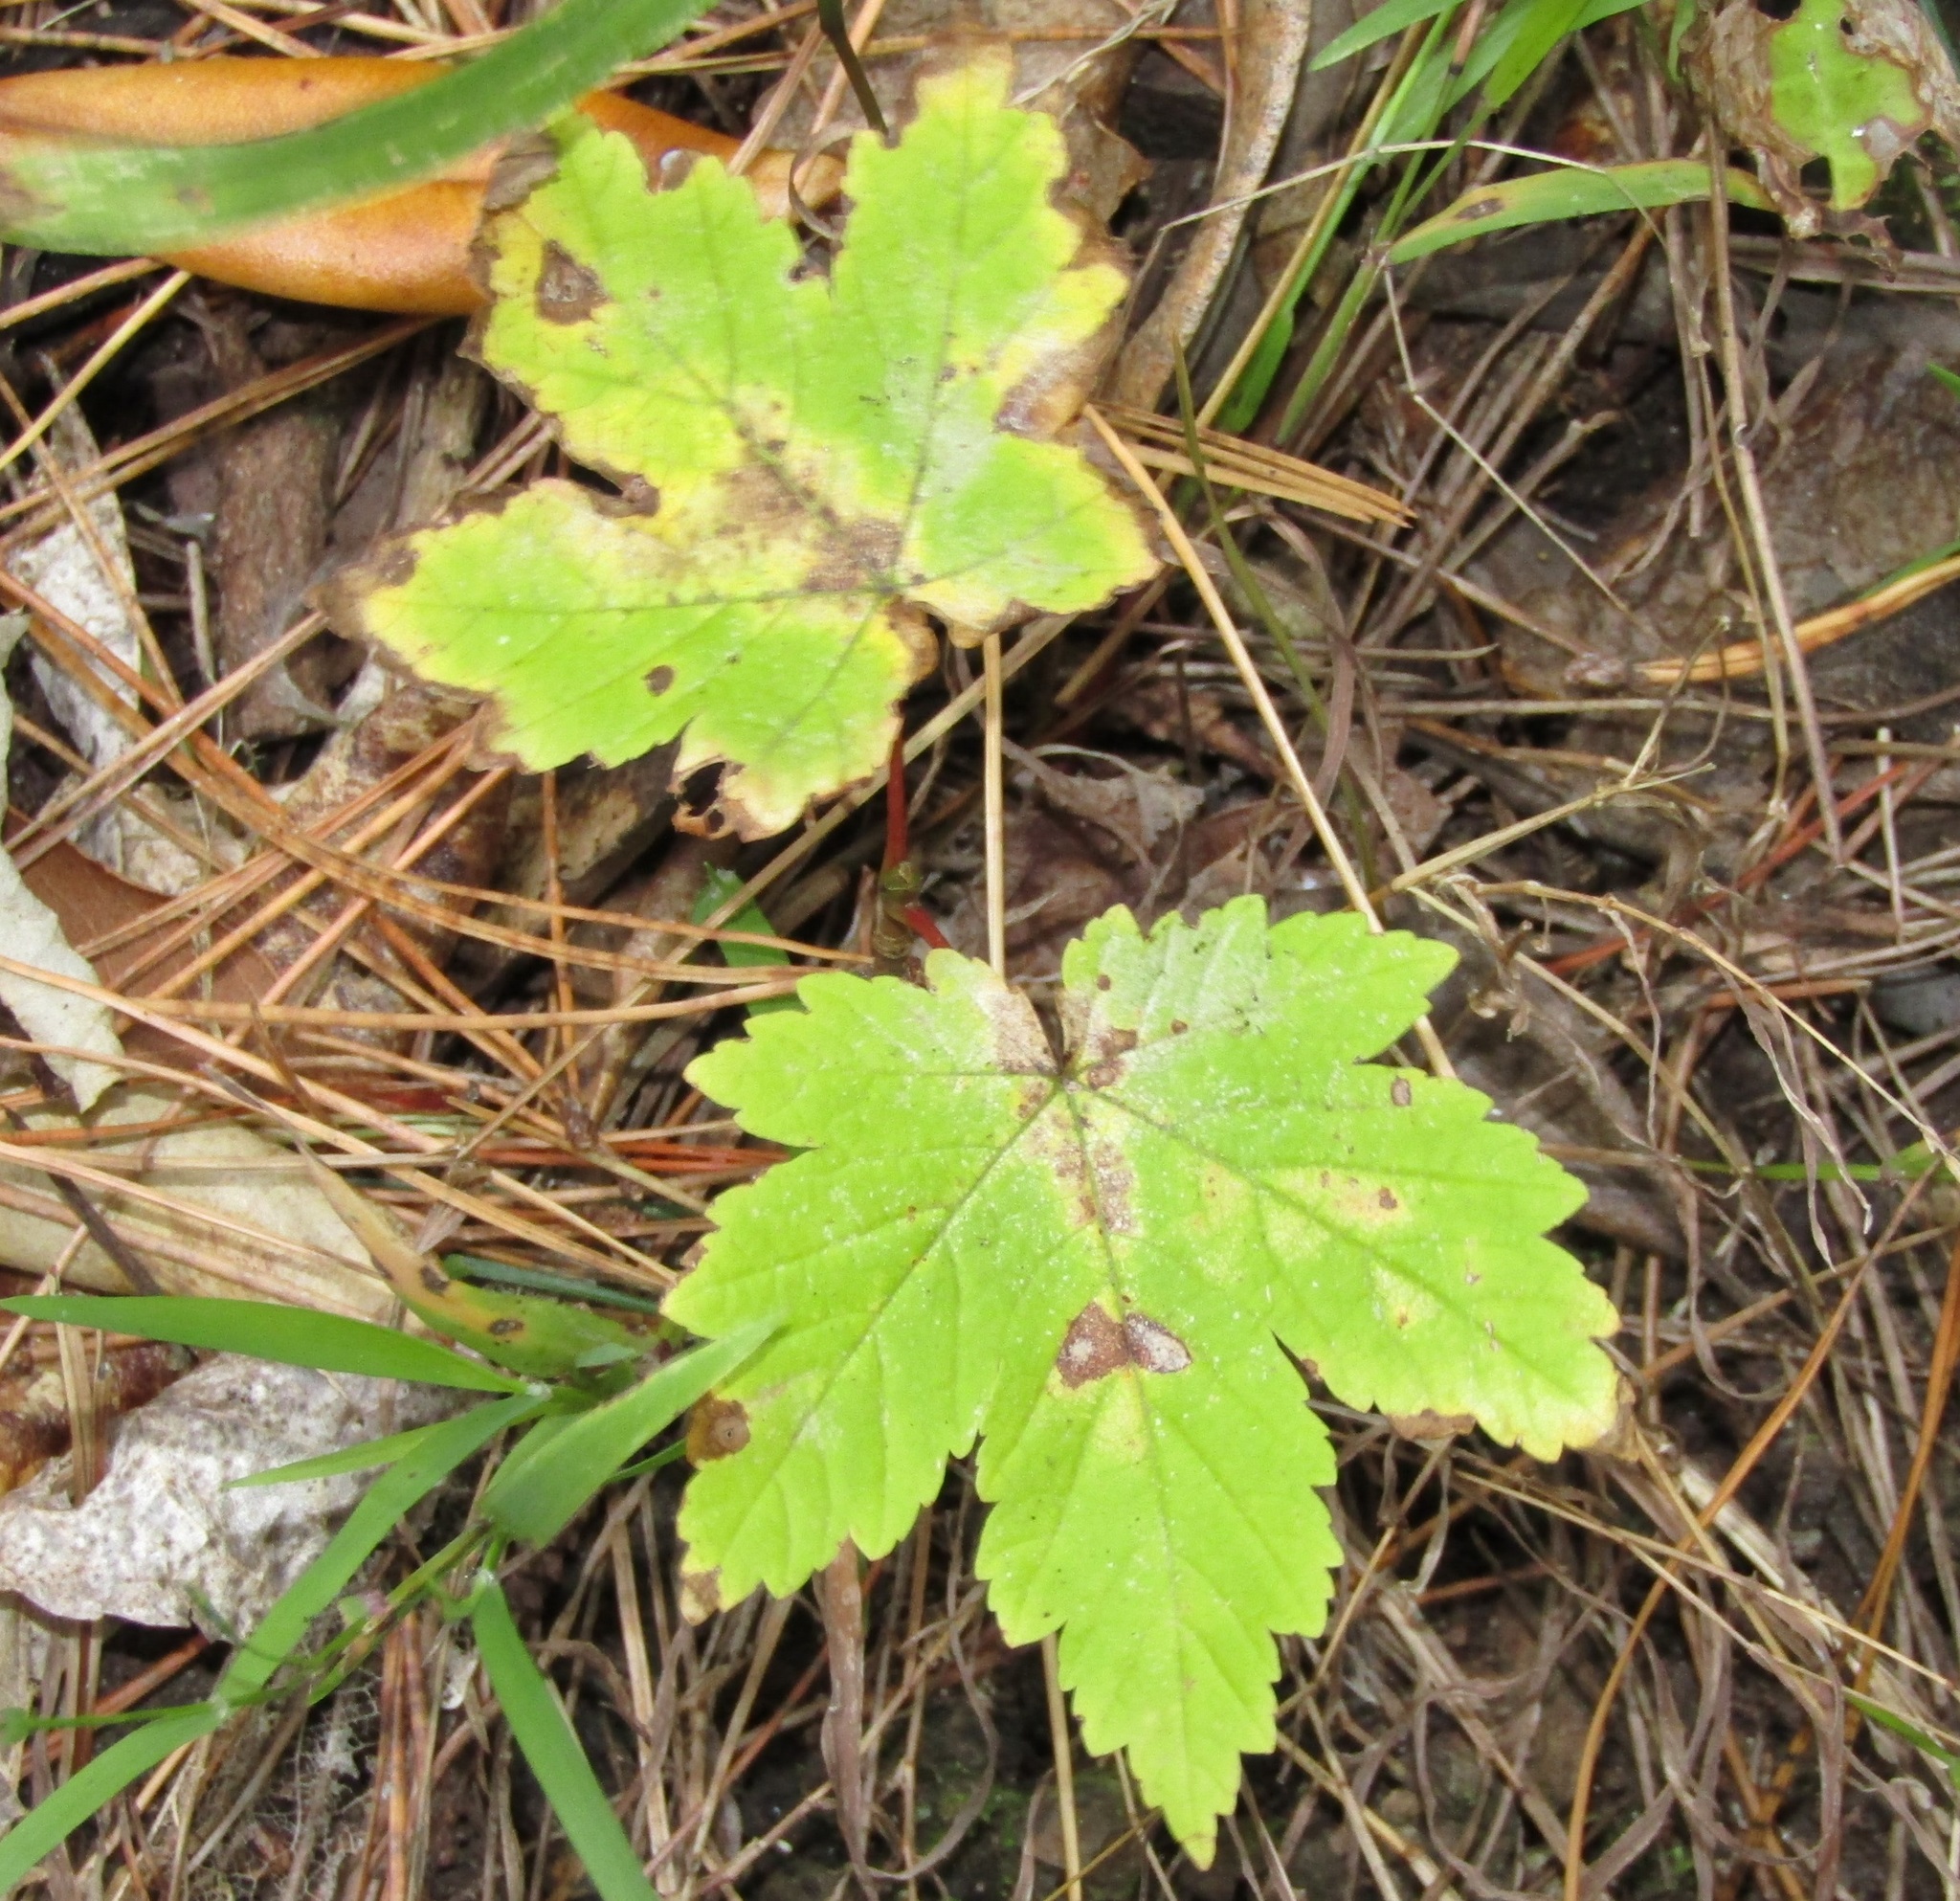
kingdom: Plantae
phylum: Tracheophyta
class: Magnoliopsida
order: Sapindales
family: Sapindaceae
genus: Acer
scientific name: Acer pseudoplatanus
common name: Sycamore
